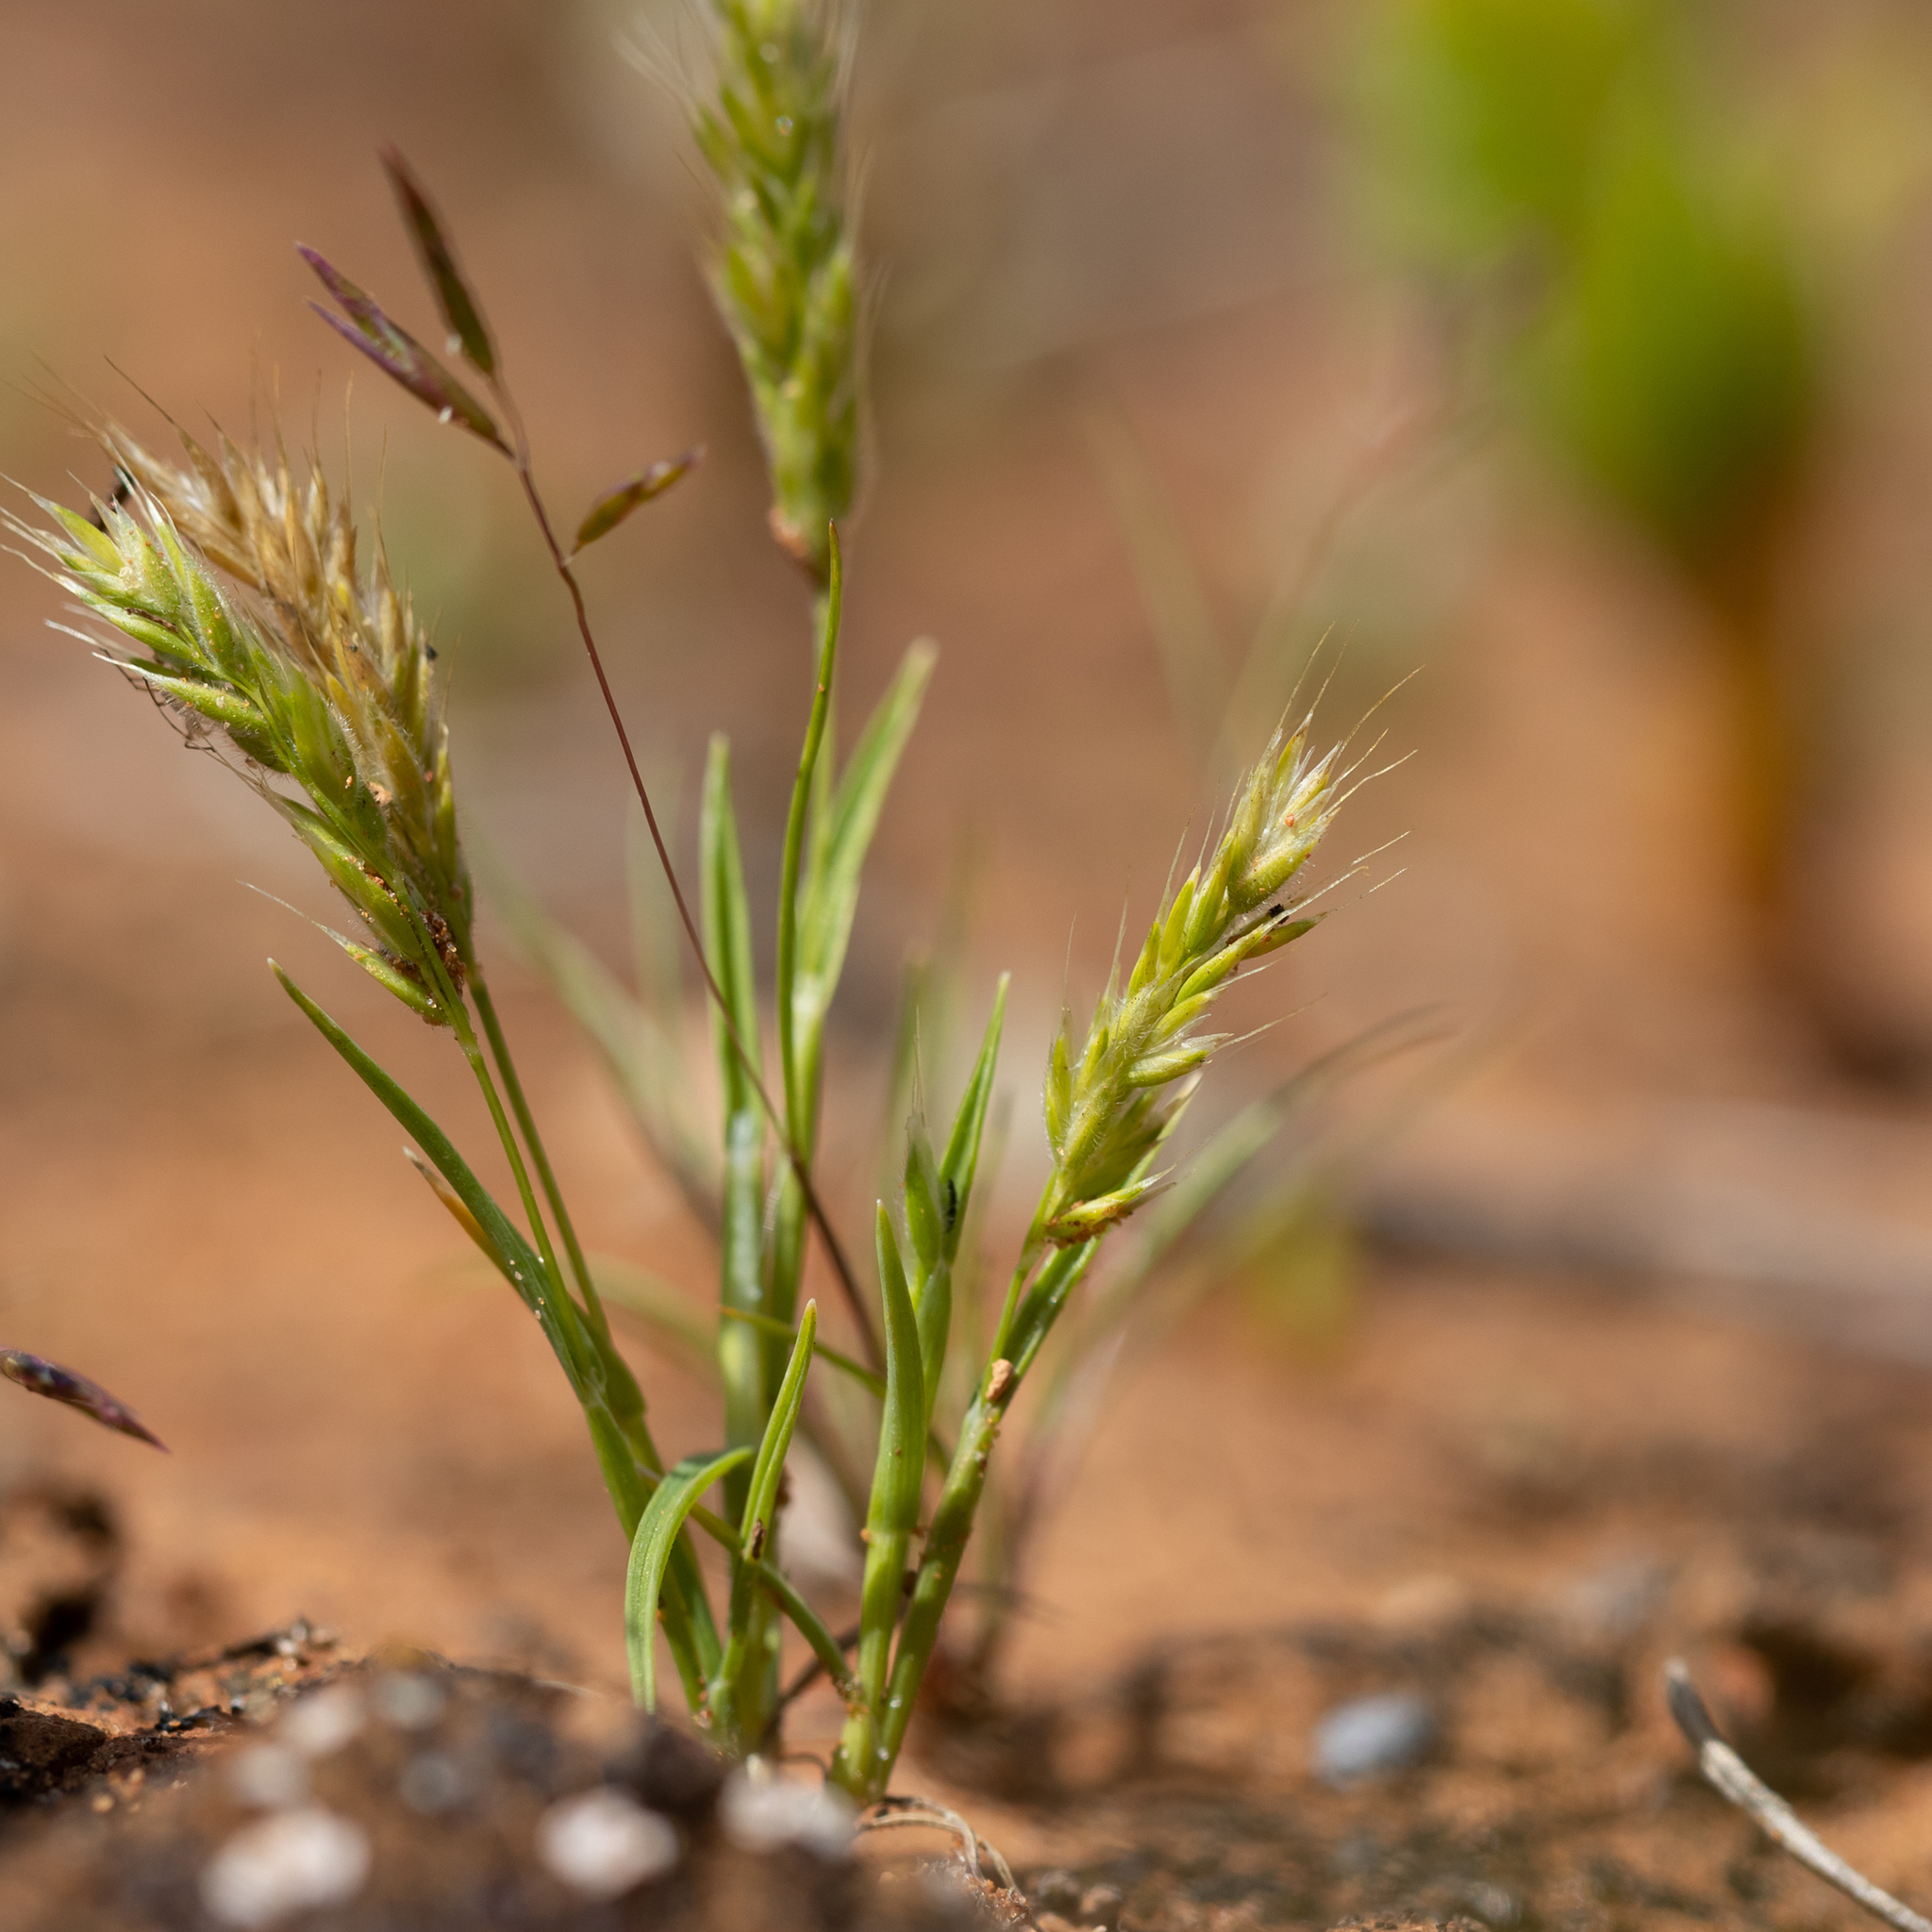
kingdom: Plantae
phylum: Tracheophyta
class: Liliopsida
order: Poales
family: Poaceae
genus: Rostraria
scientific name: Rostraria pumila
